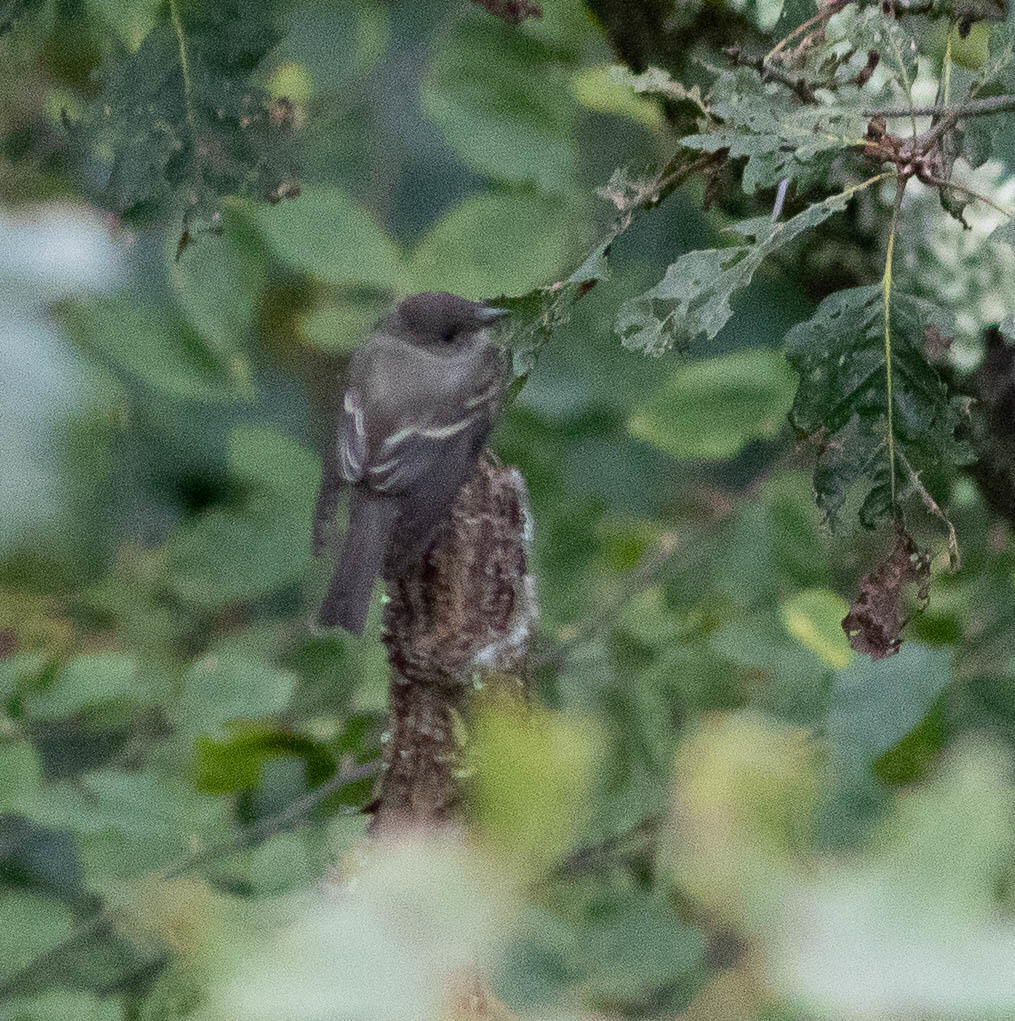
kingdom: Animalia
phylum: Chordata
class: Aves
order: Passeriformes
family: Tyrannidae
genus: Contopus
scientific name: Contopus virens
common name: Eastern wood-pewee
